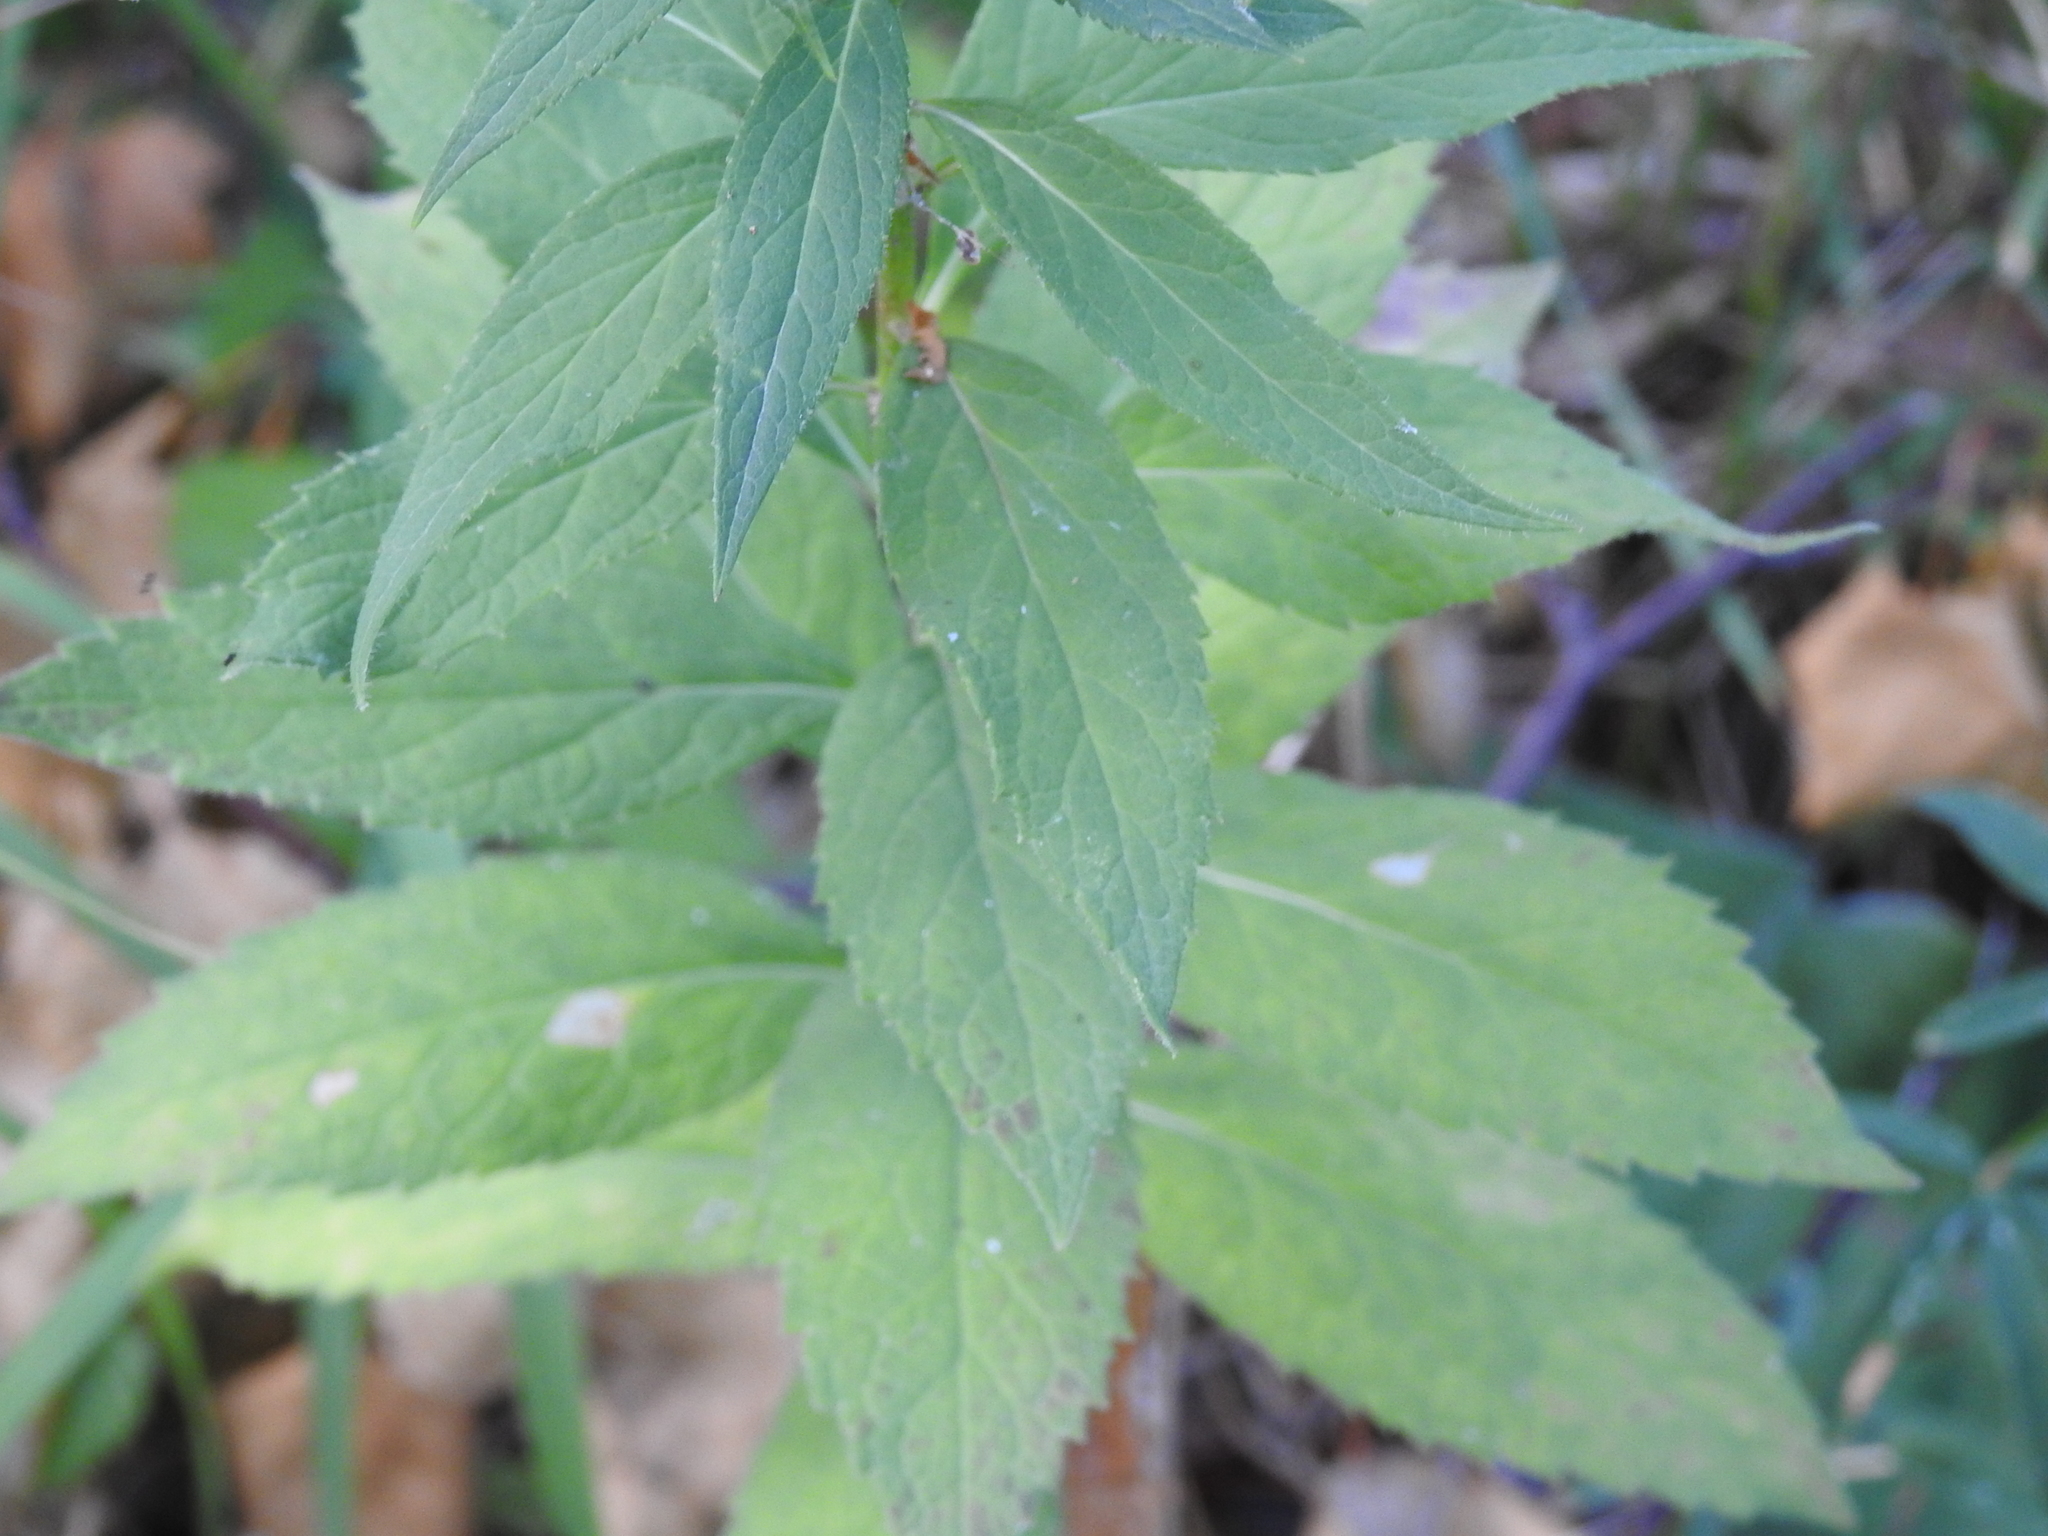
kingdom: Plantae
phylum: Tracheophyta
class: Magnoliopsida
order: Asterales
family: Campanulaceae
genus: Adenophora
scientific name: Adenophora liliifolia
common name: Lilyleaf ladybells
